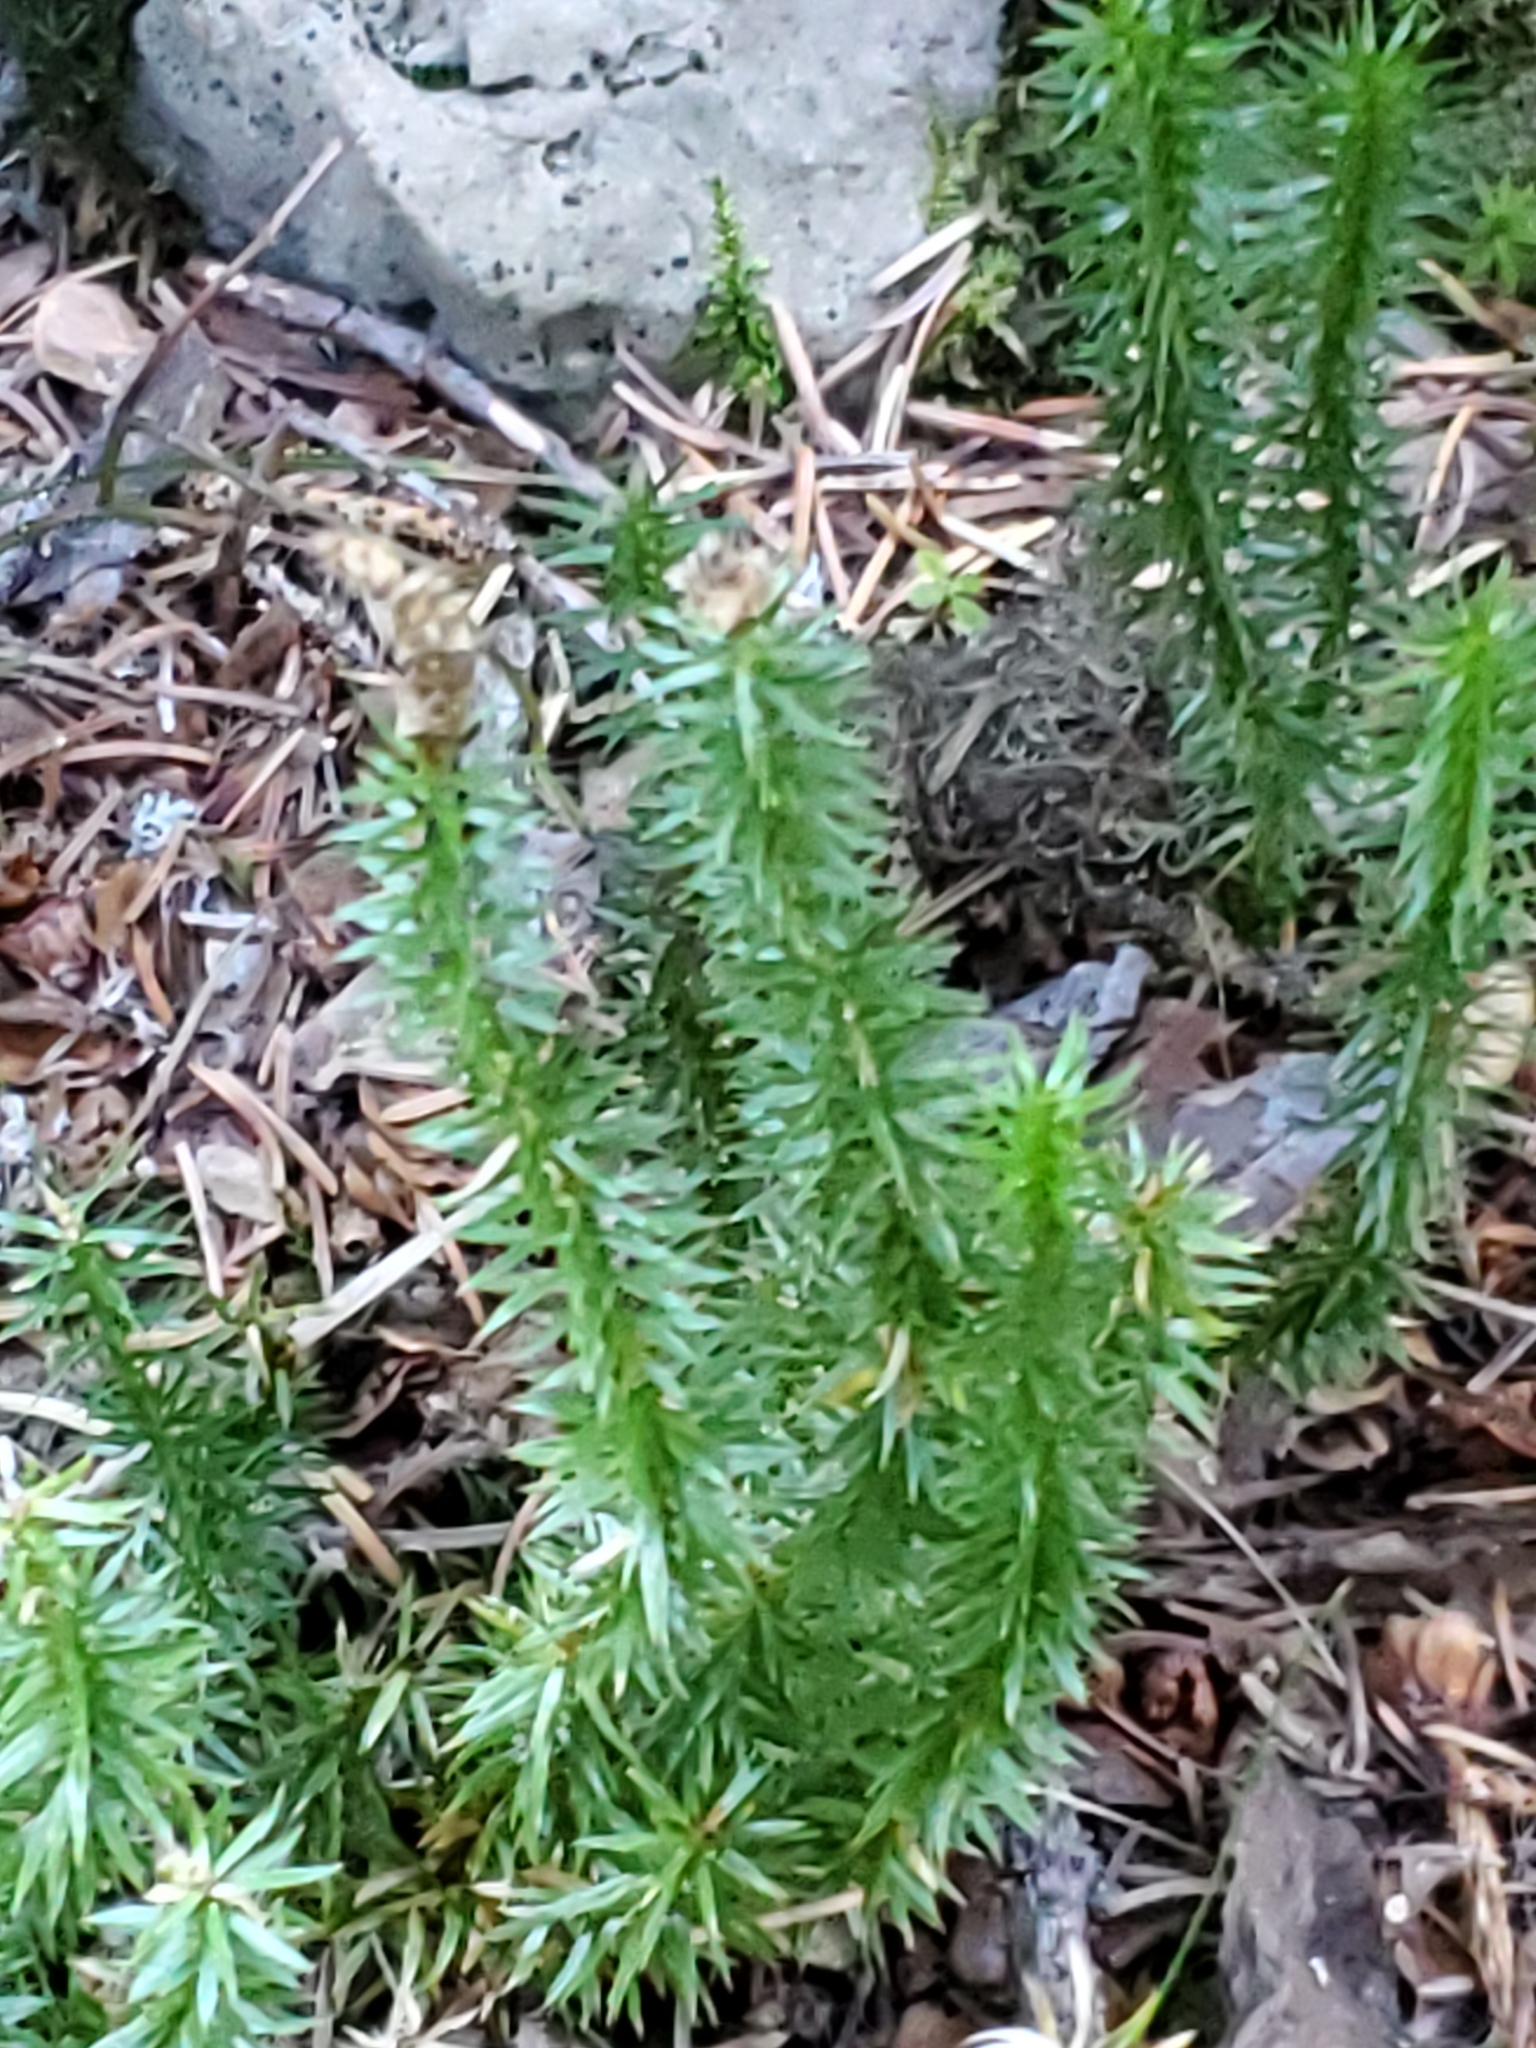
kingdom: Plantae
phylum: Tracheophyta
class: Lycopodiopsida
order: Lycopodiales
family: Lycopodiaceae
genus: Spinulum
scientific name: Spinulum annotinum
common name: Interrupted club-moss
